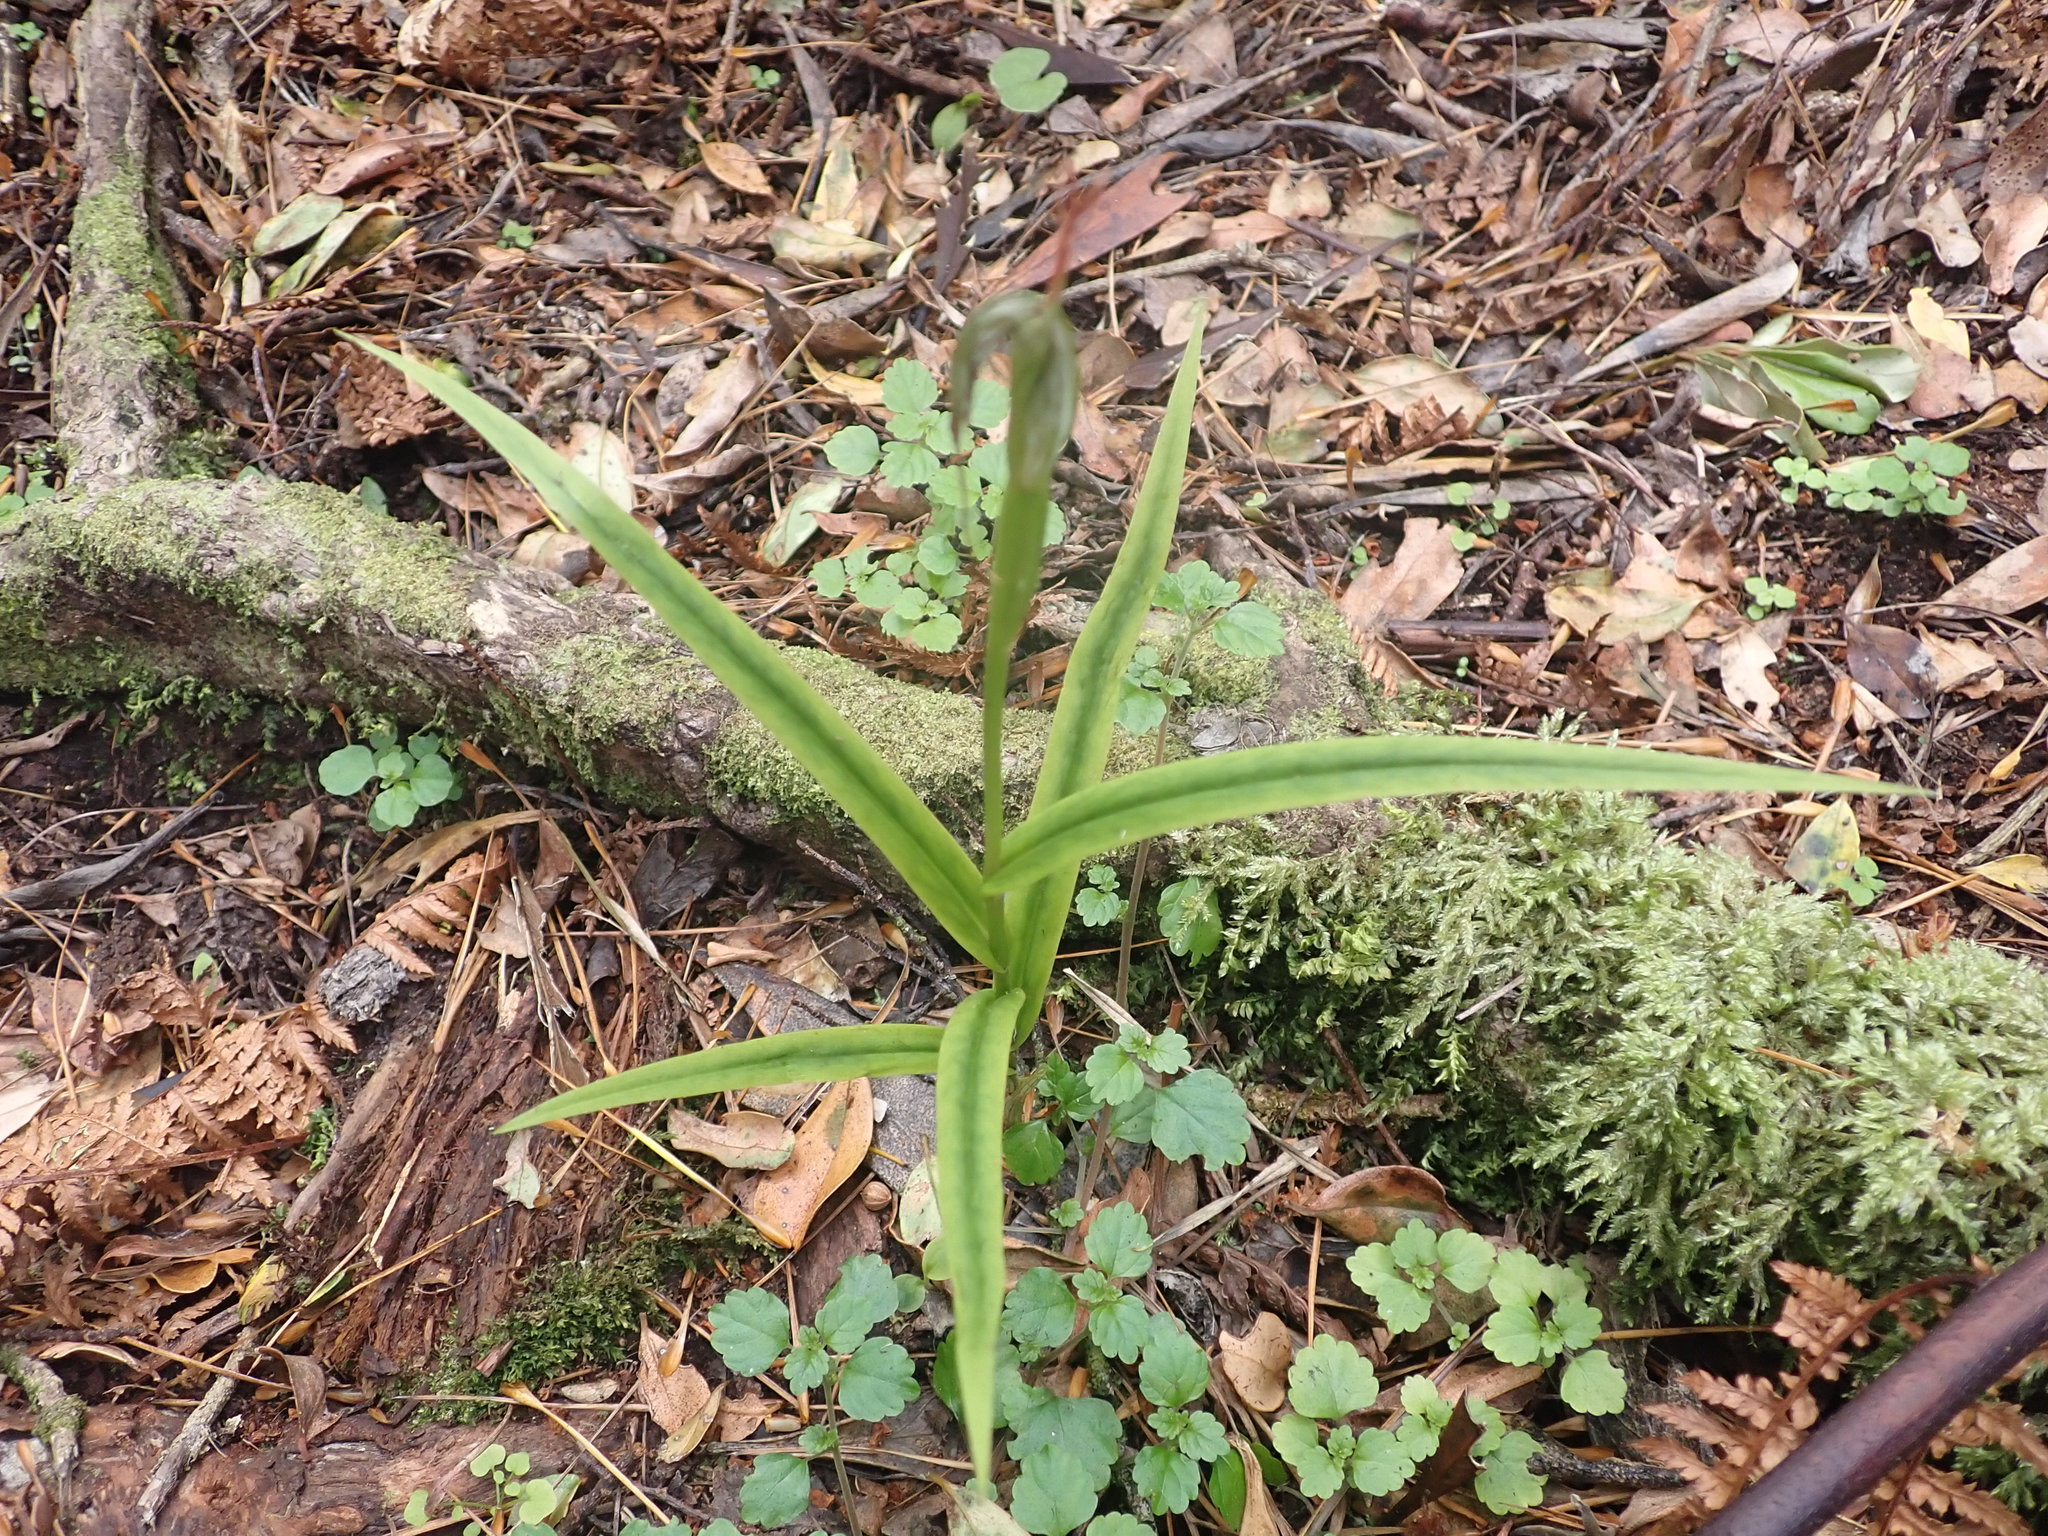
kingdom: Plantae
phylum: Tracheophyta
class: Liliopsida
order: Asparagales
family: Orchidaceae
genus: Pterostylis
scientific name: Pterostylis banksii
